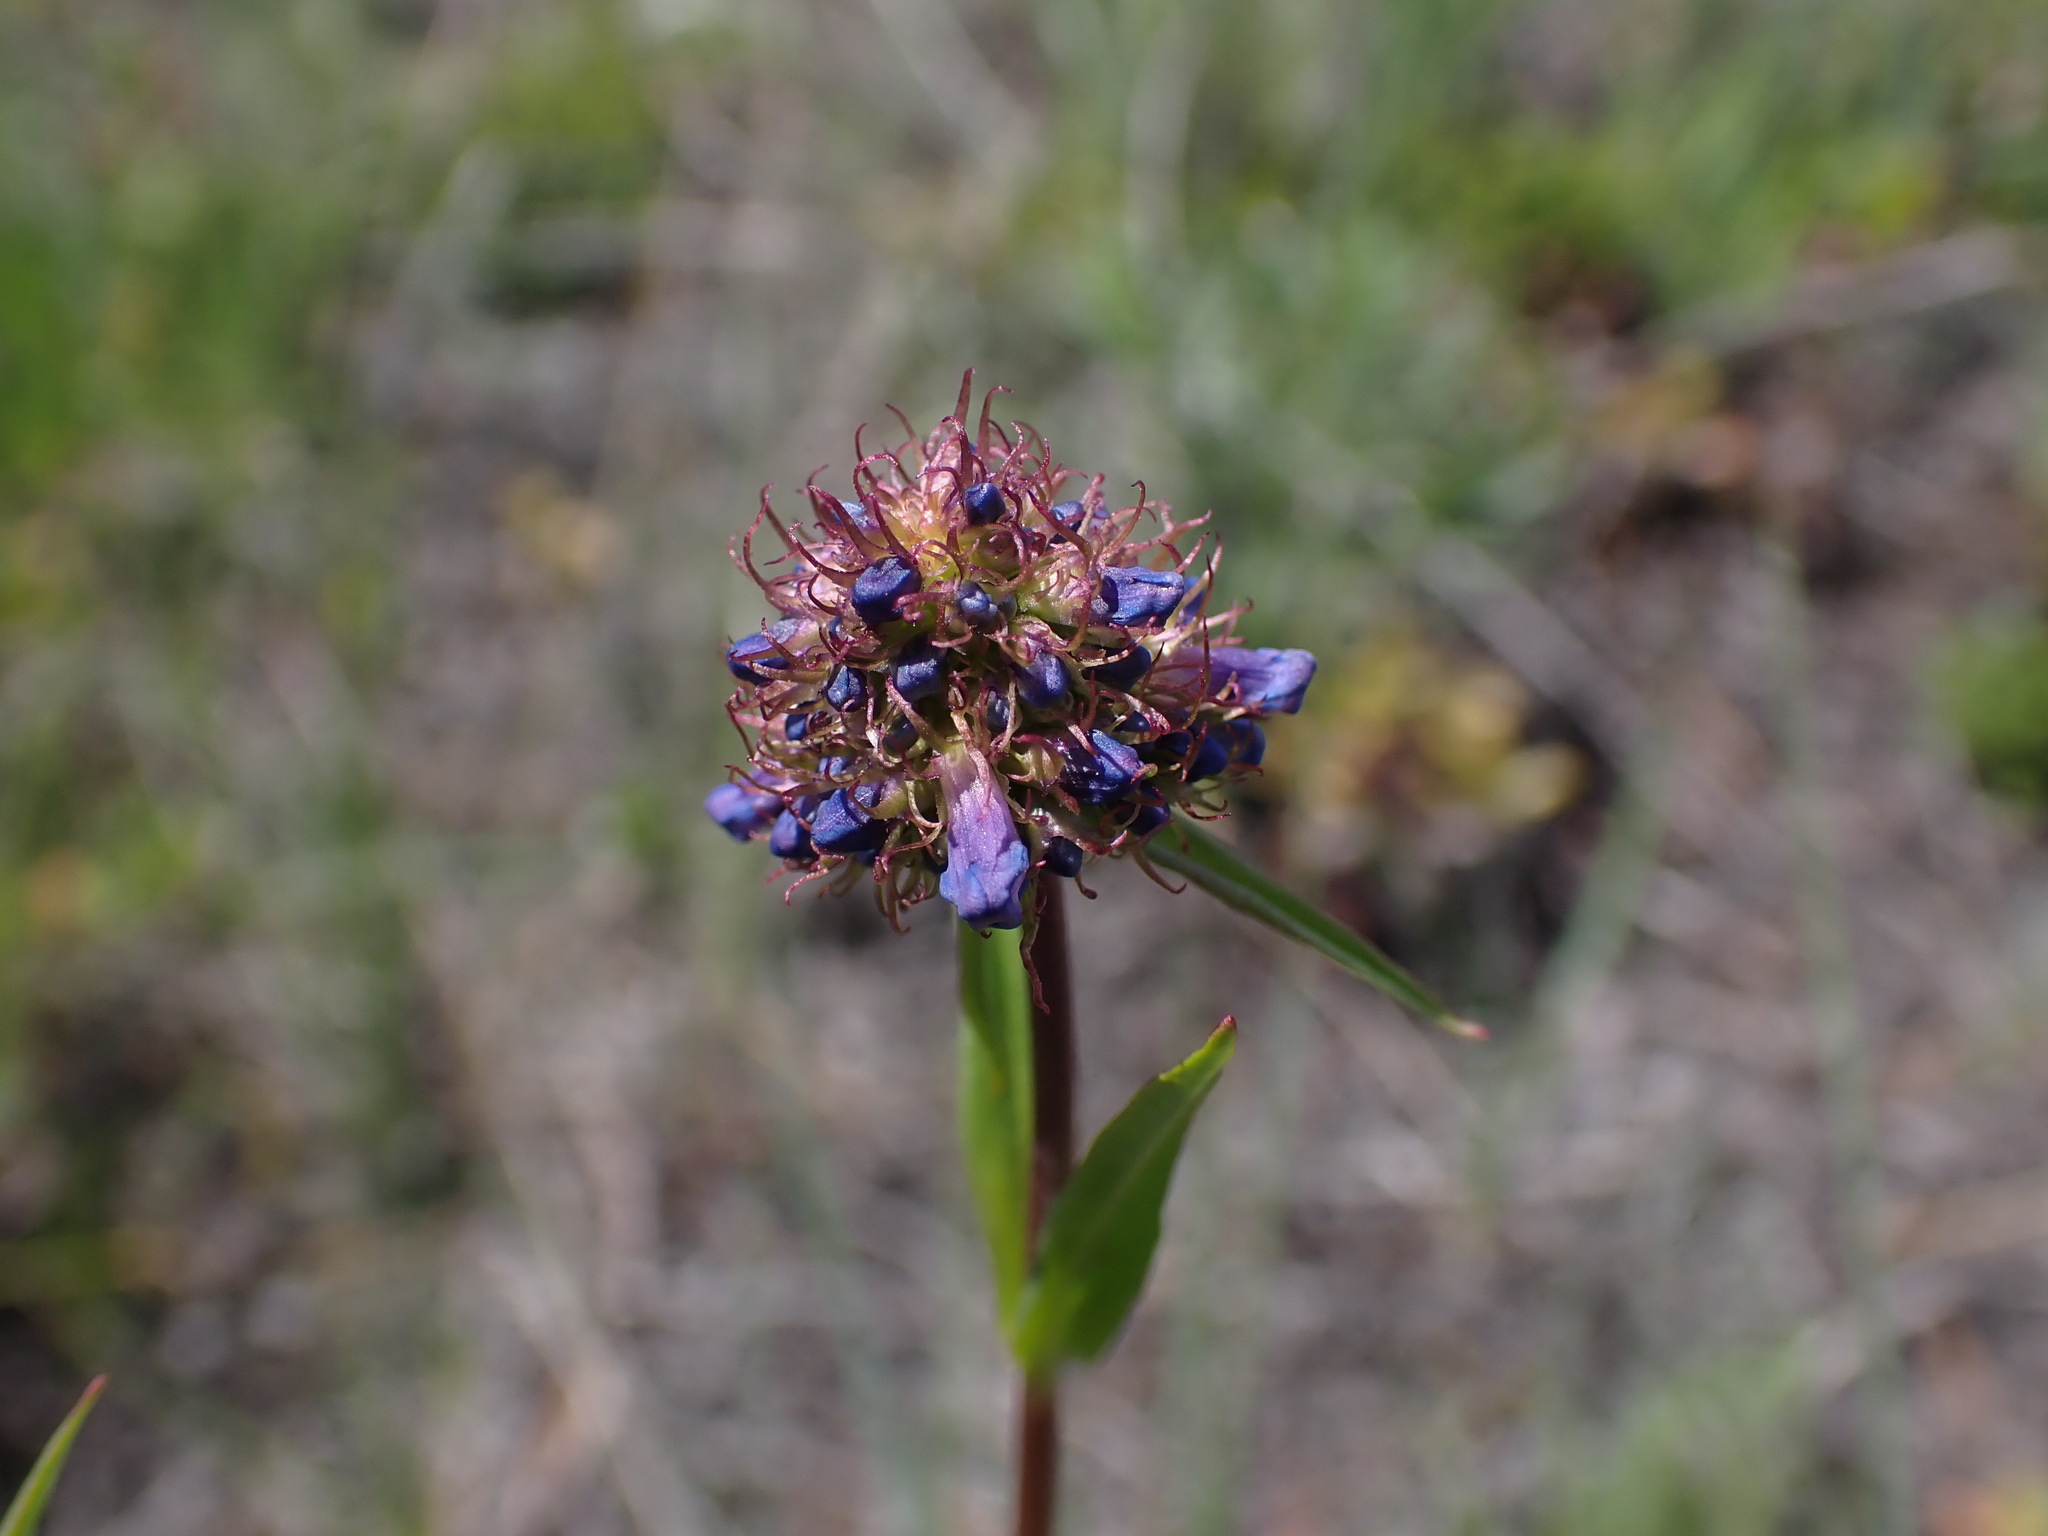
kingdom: Plantae
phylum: Tracheophyta
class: Magnoliopsida
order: Lamiales
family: Plantaginaceae
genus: Penstemon
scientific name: Penstemon procerus
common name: Small-flower penstemon
